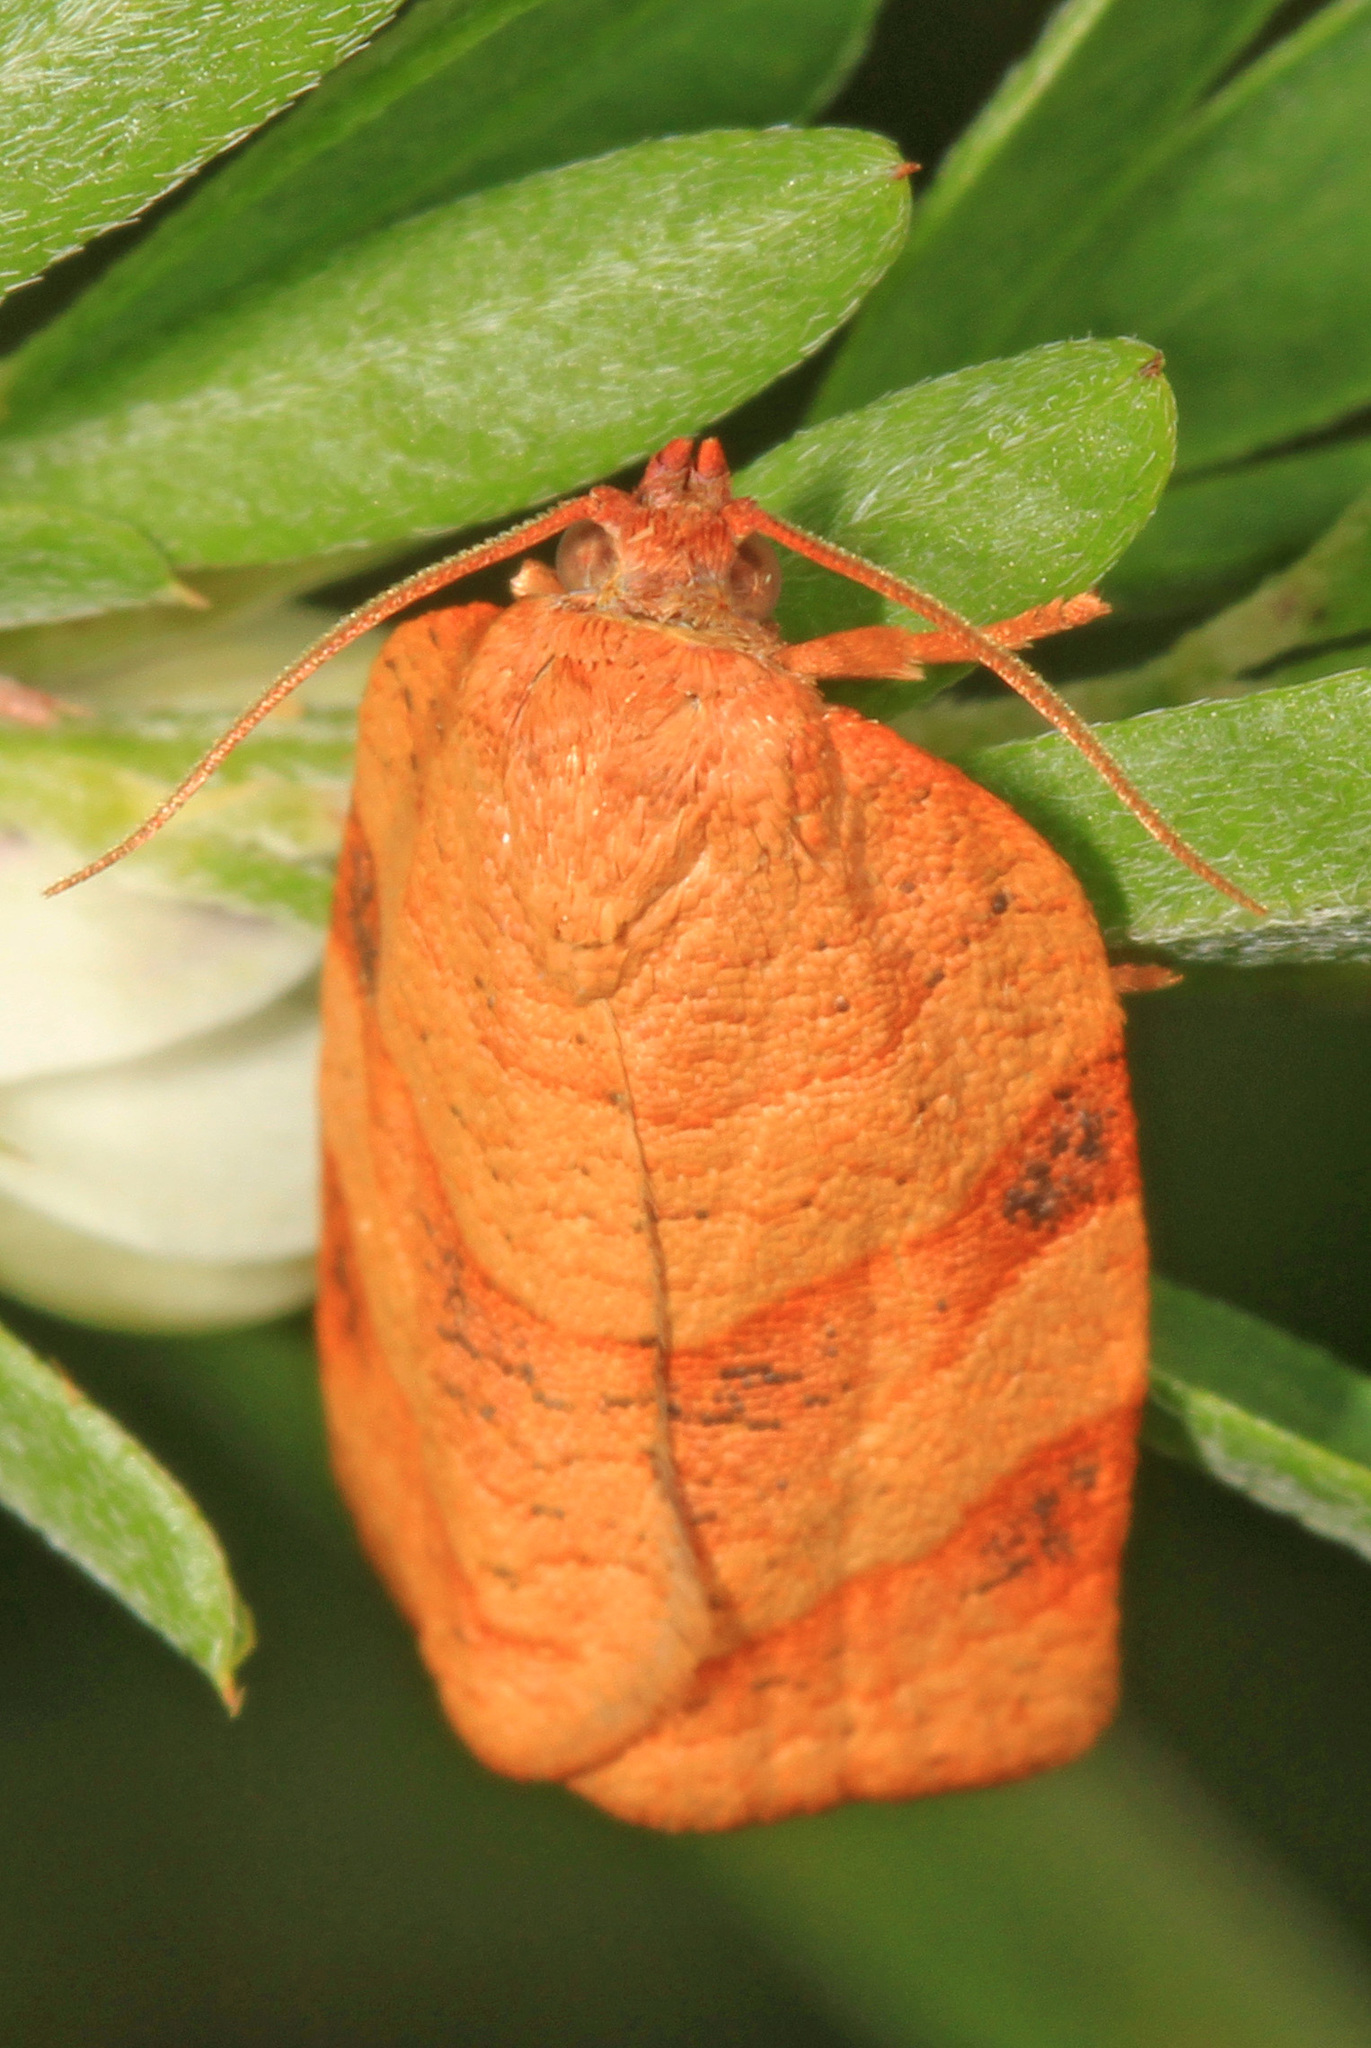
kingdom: Animalia
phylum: Arthropoda
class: Insecta
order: Lepidoptera
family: Tortricidae
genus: Choristoneura
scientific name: Choristoneura rosaceana
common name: Oblique-banded leafroller moth
